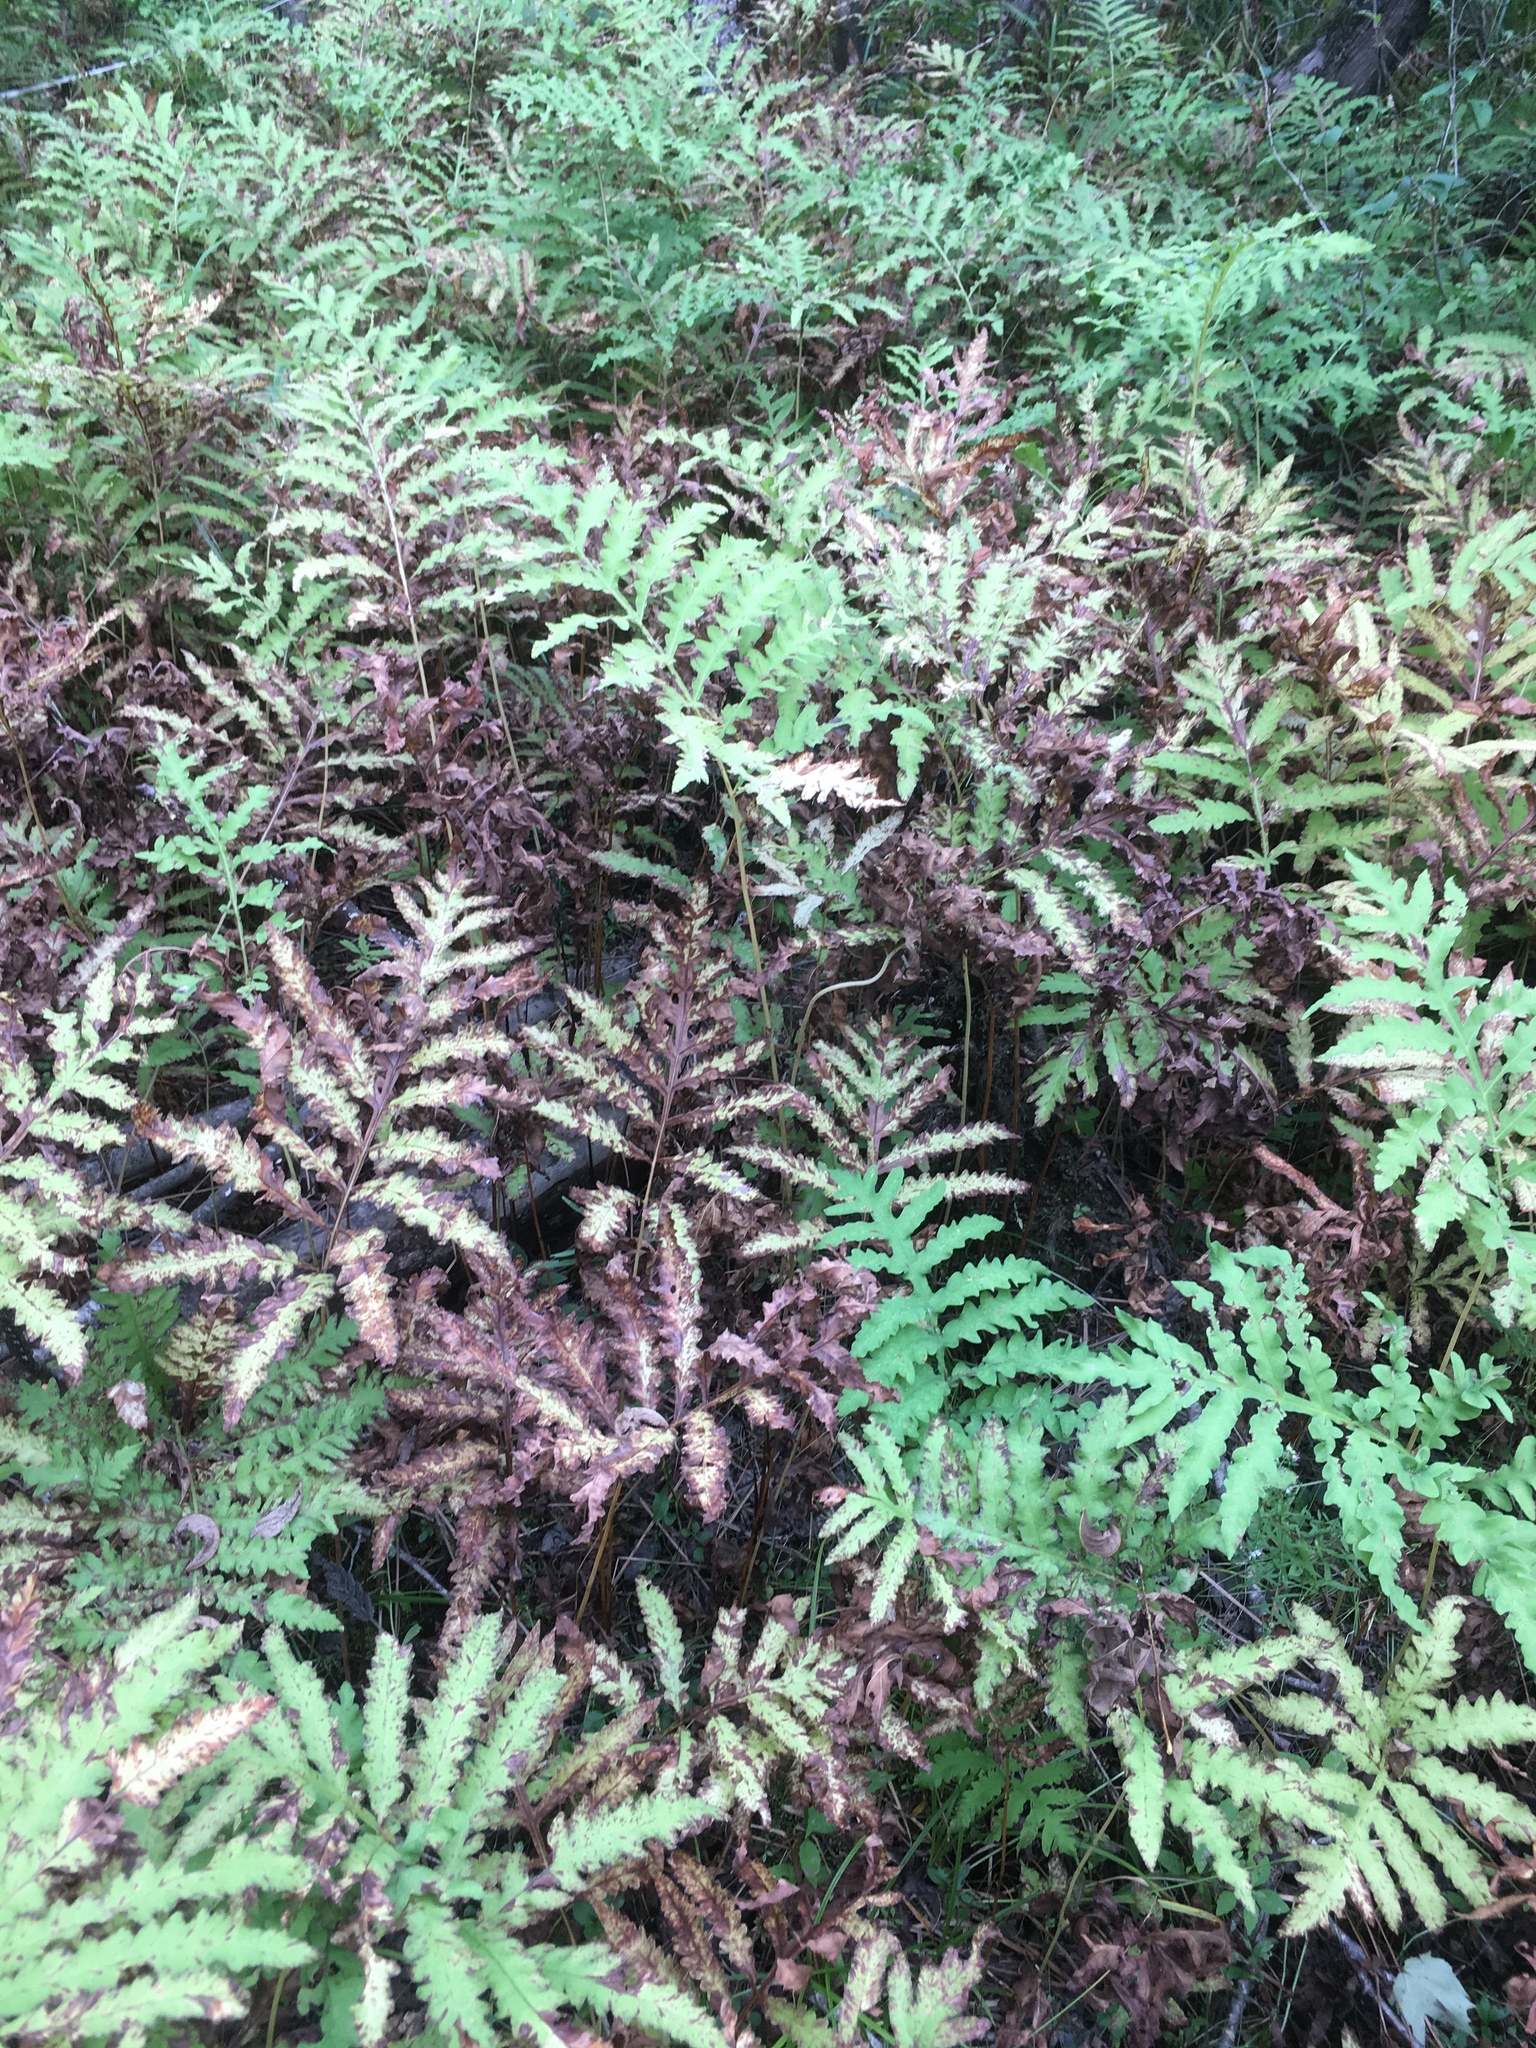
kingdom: Plantae
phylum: Tracheophyta
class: Polypodiopsida
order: Polypodiales
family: Onocleaceae
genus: Onoclea
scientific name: Onoclea sensibilis
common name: Sensitive fern
